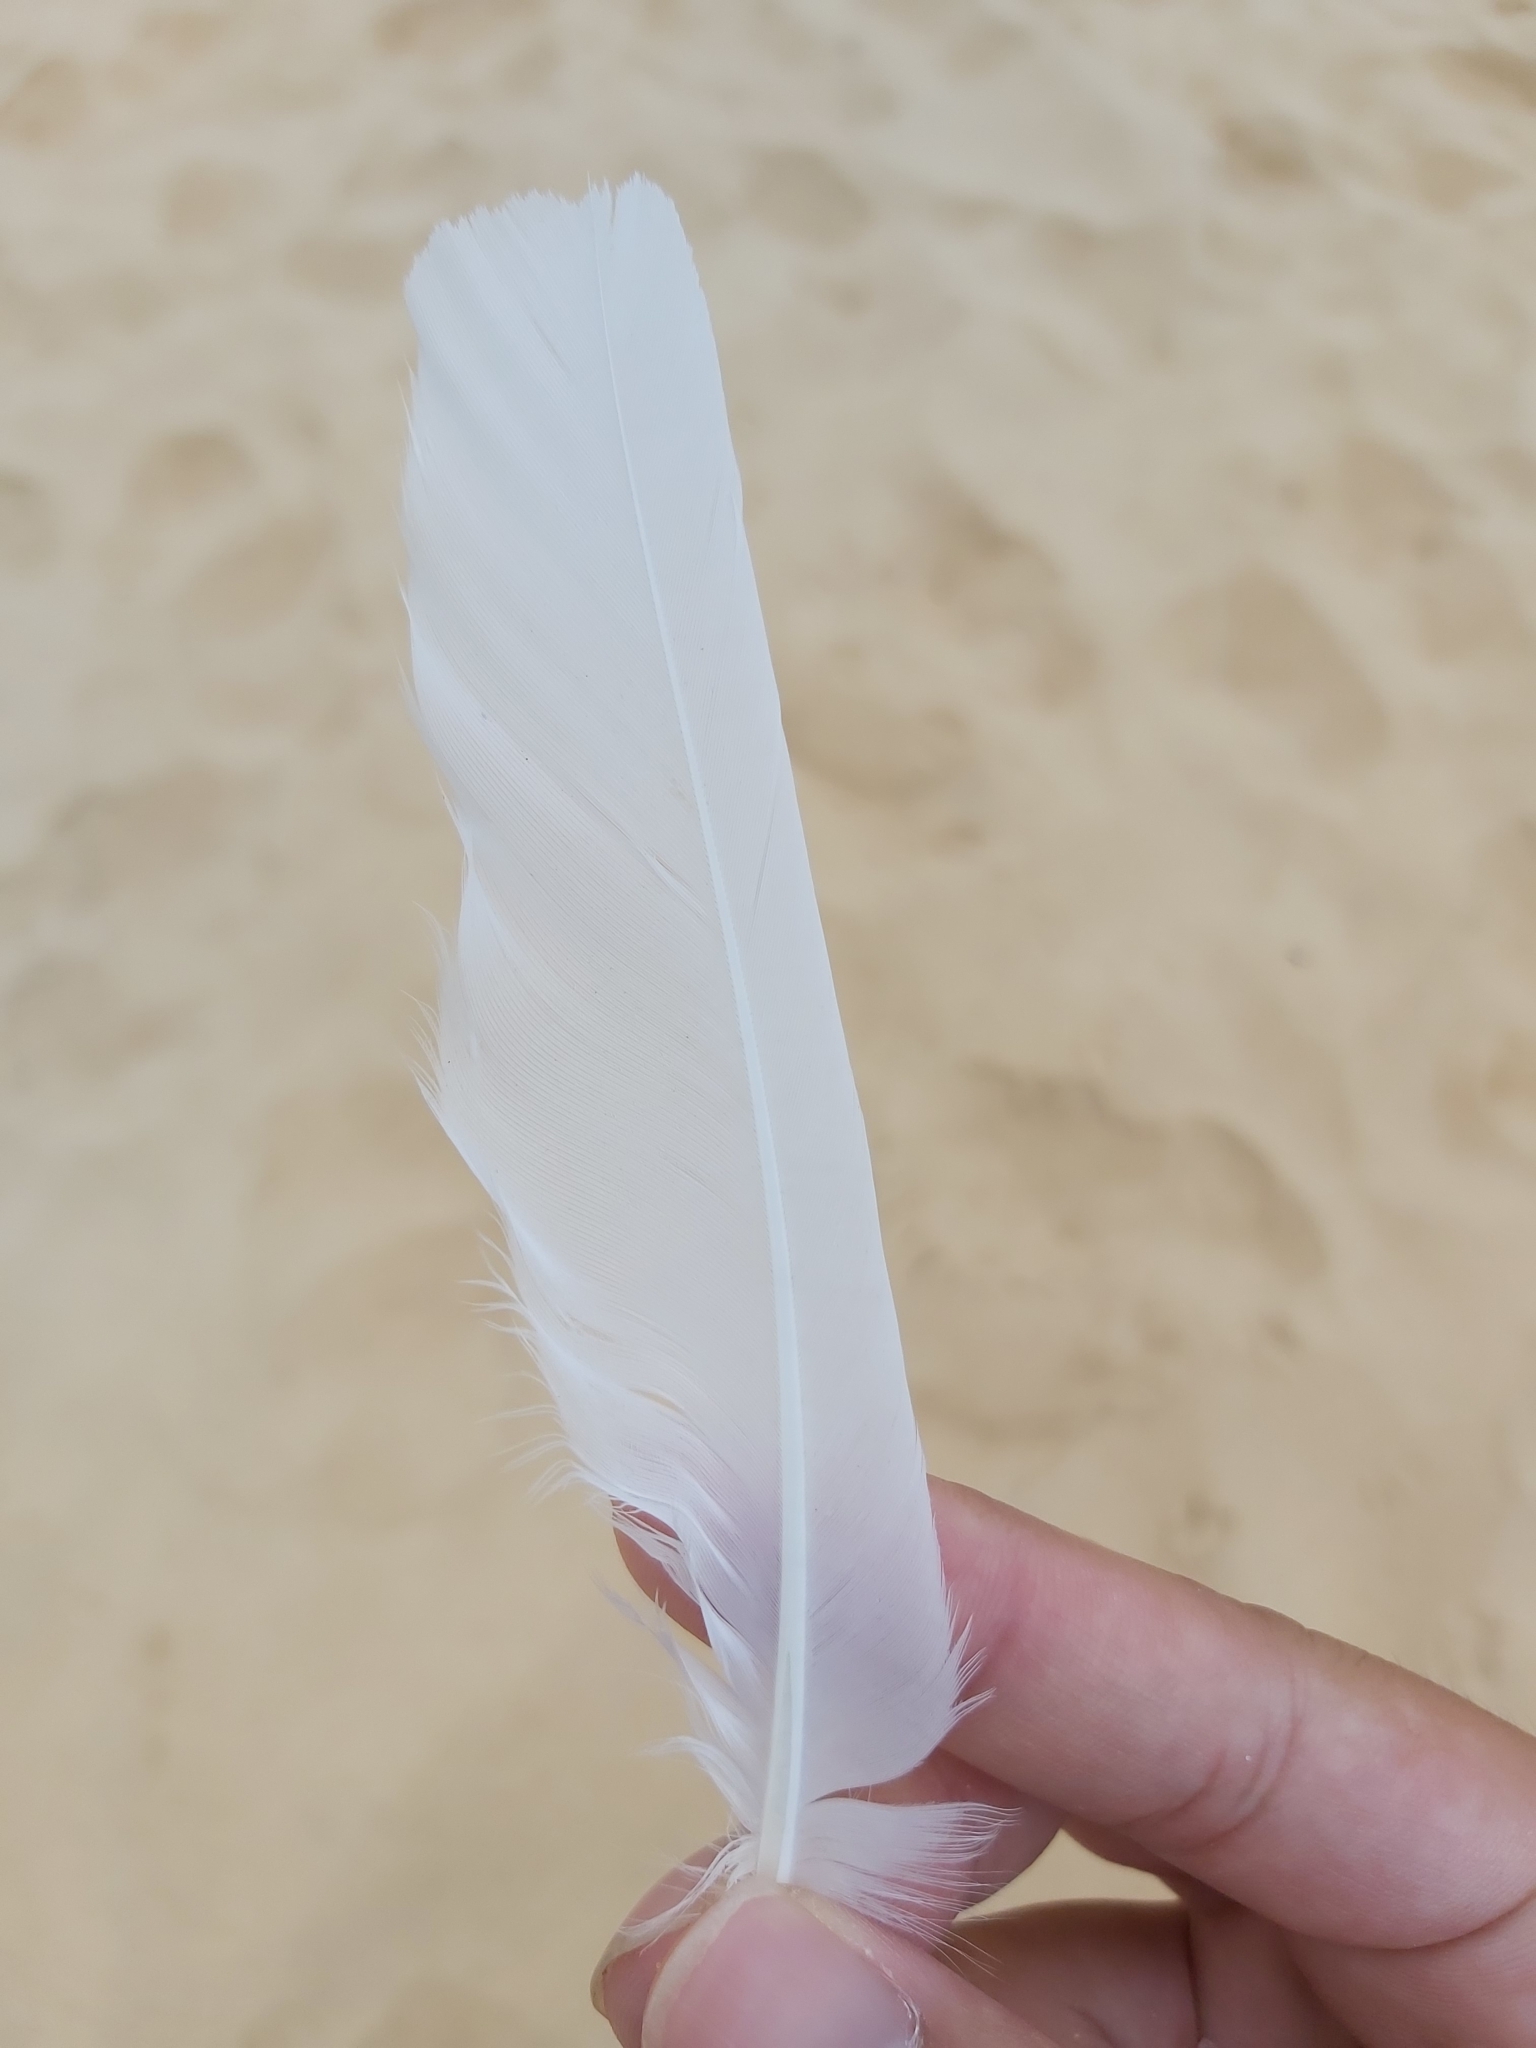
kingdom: Animalia
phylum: Chordata
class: Aves
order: Charadriiformes
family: Laridae
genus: Chroicocephalus
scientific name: Chroicocephalus novaehollandiae
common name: Silver gull
